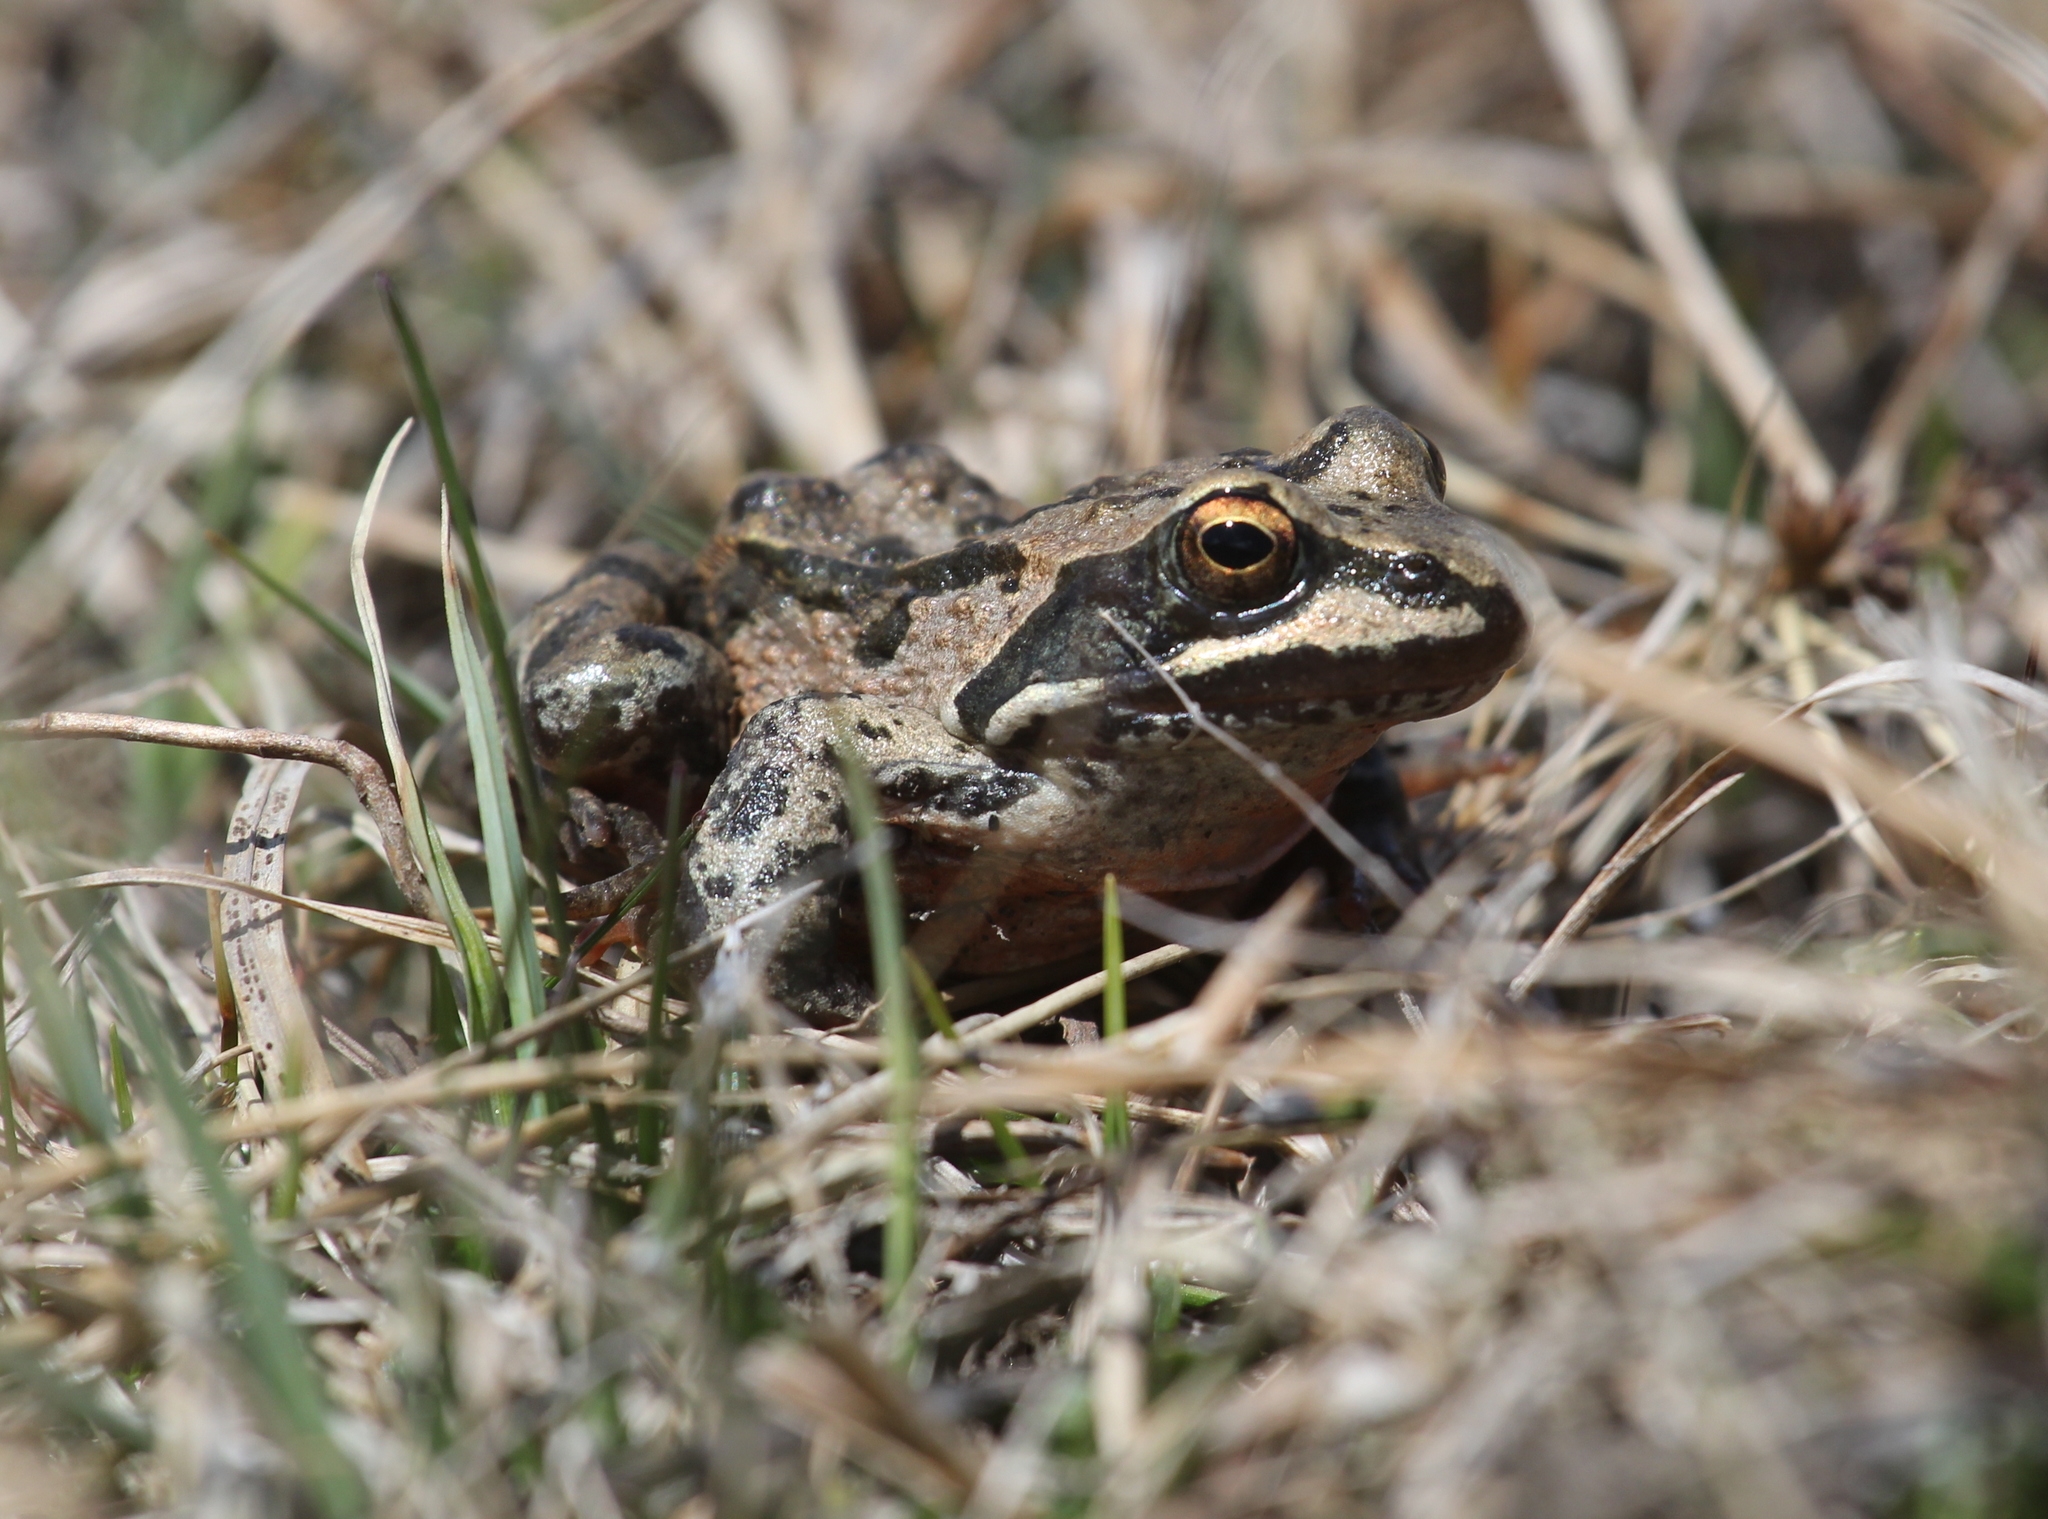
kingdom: Animalia
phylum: Chordata
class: Amphibia
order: Anura
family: Ranidae
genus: Rana
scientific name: Rana macrocnemis
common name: Banded frog
